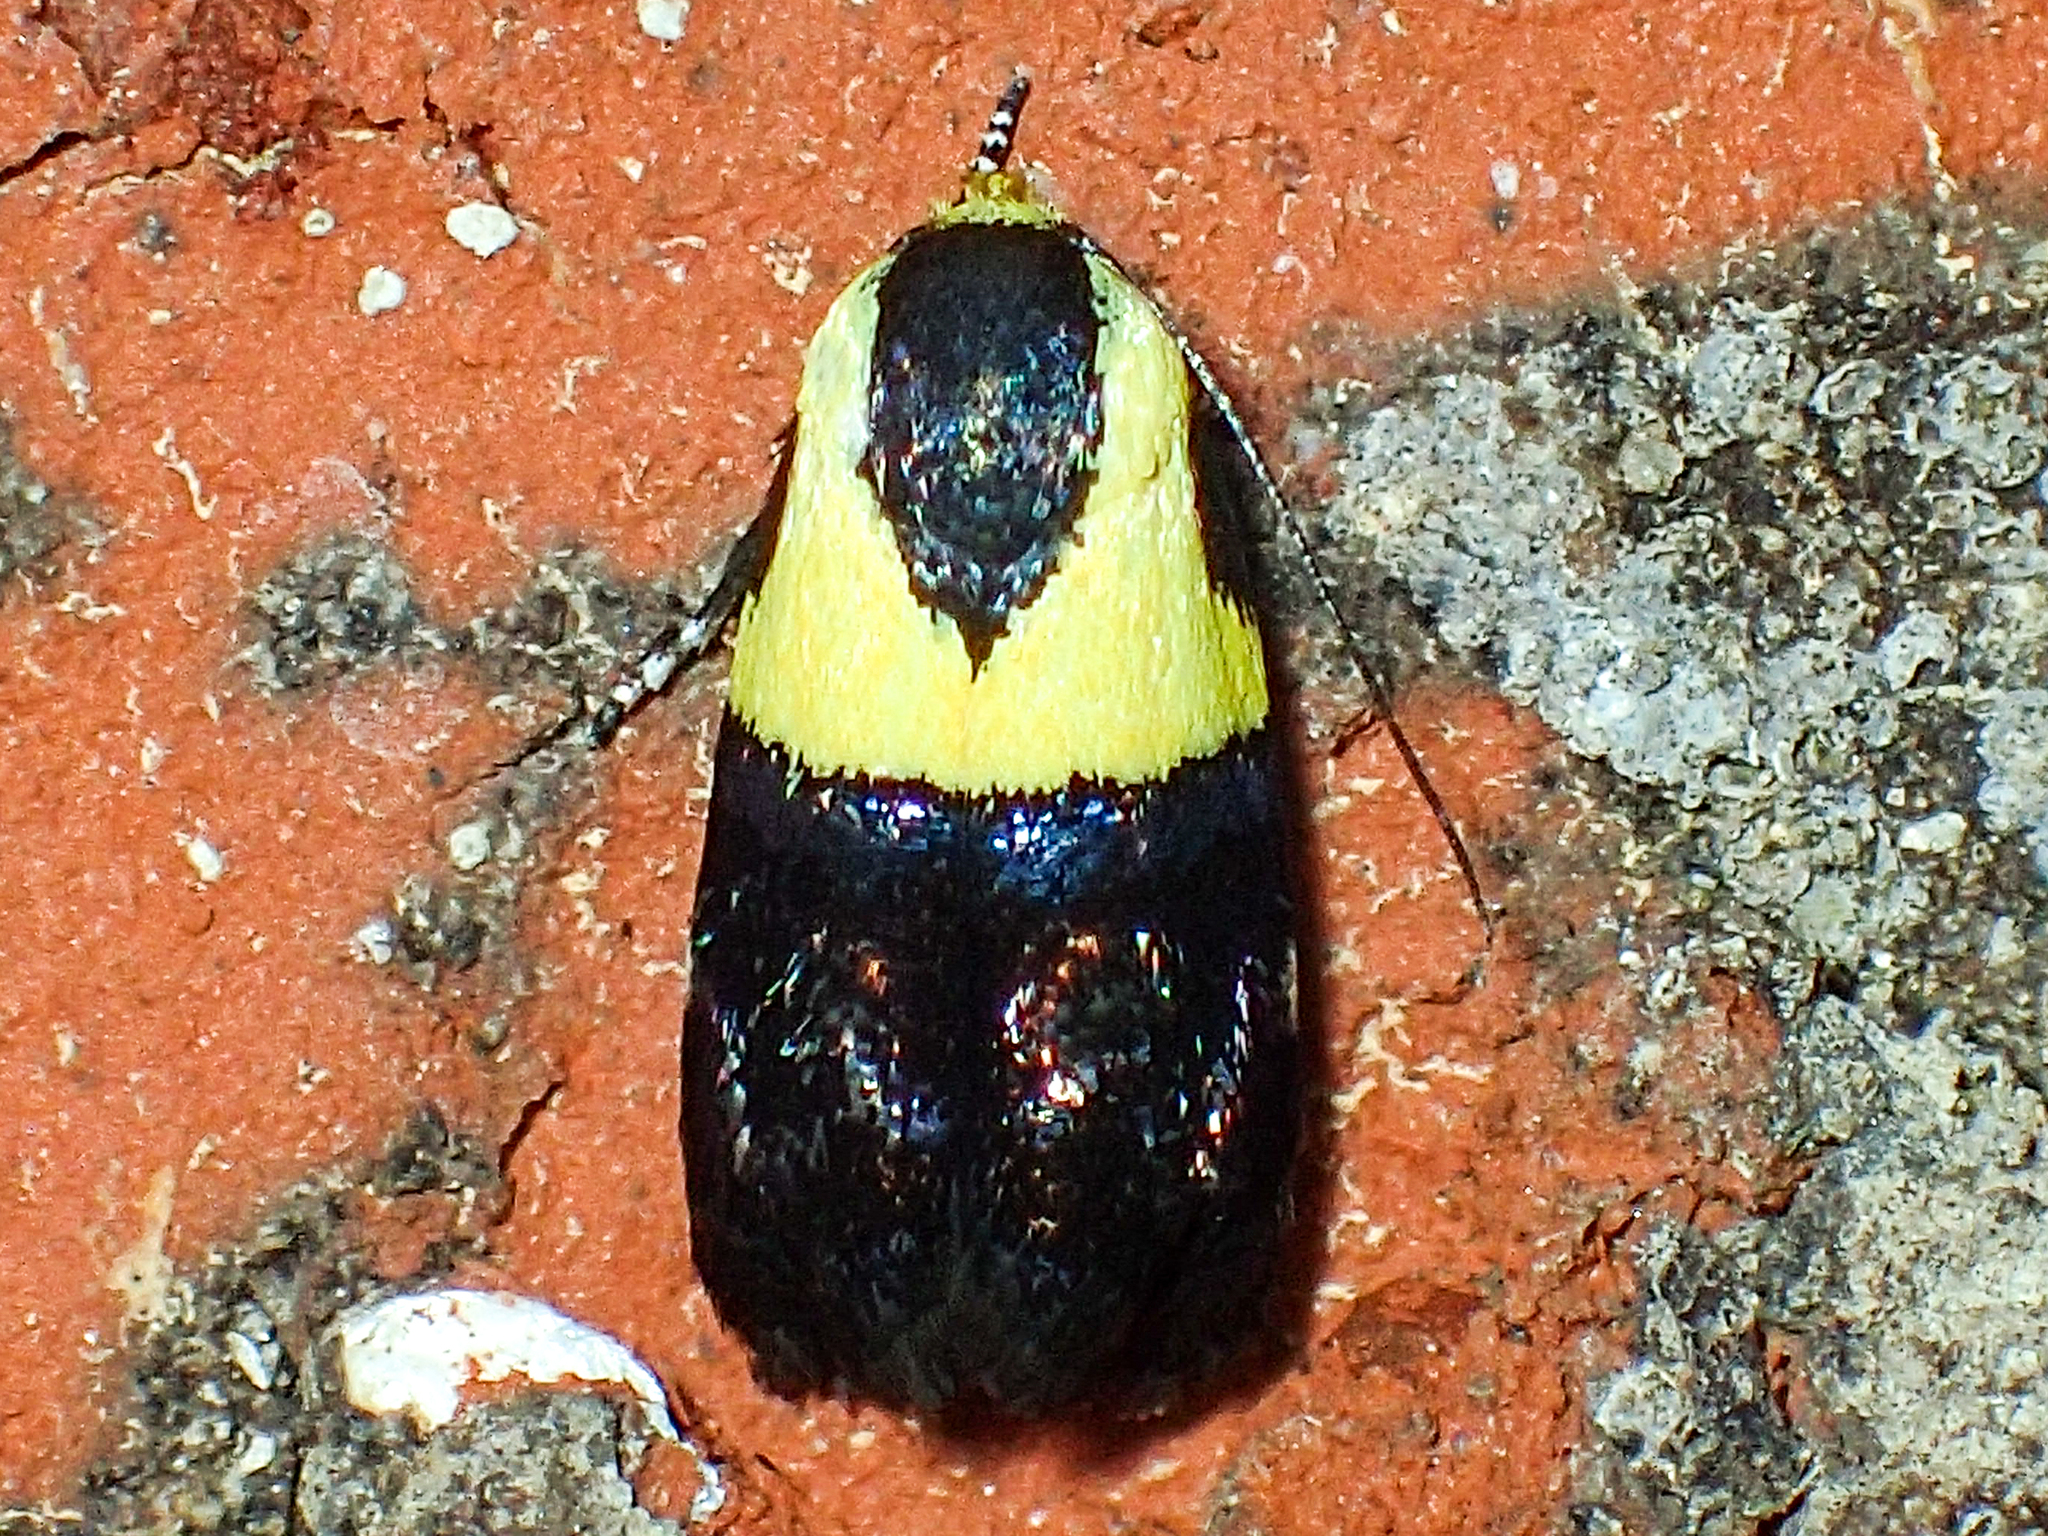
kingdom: Animalia
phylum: Arthropoda
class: Insecta
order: Lepidoptera
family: Depressariidae
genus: Rectiostoma
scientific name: Rectiostoma xanthobasis
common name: Yellow-vested moth
